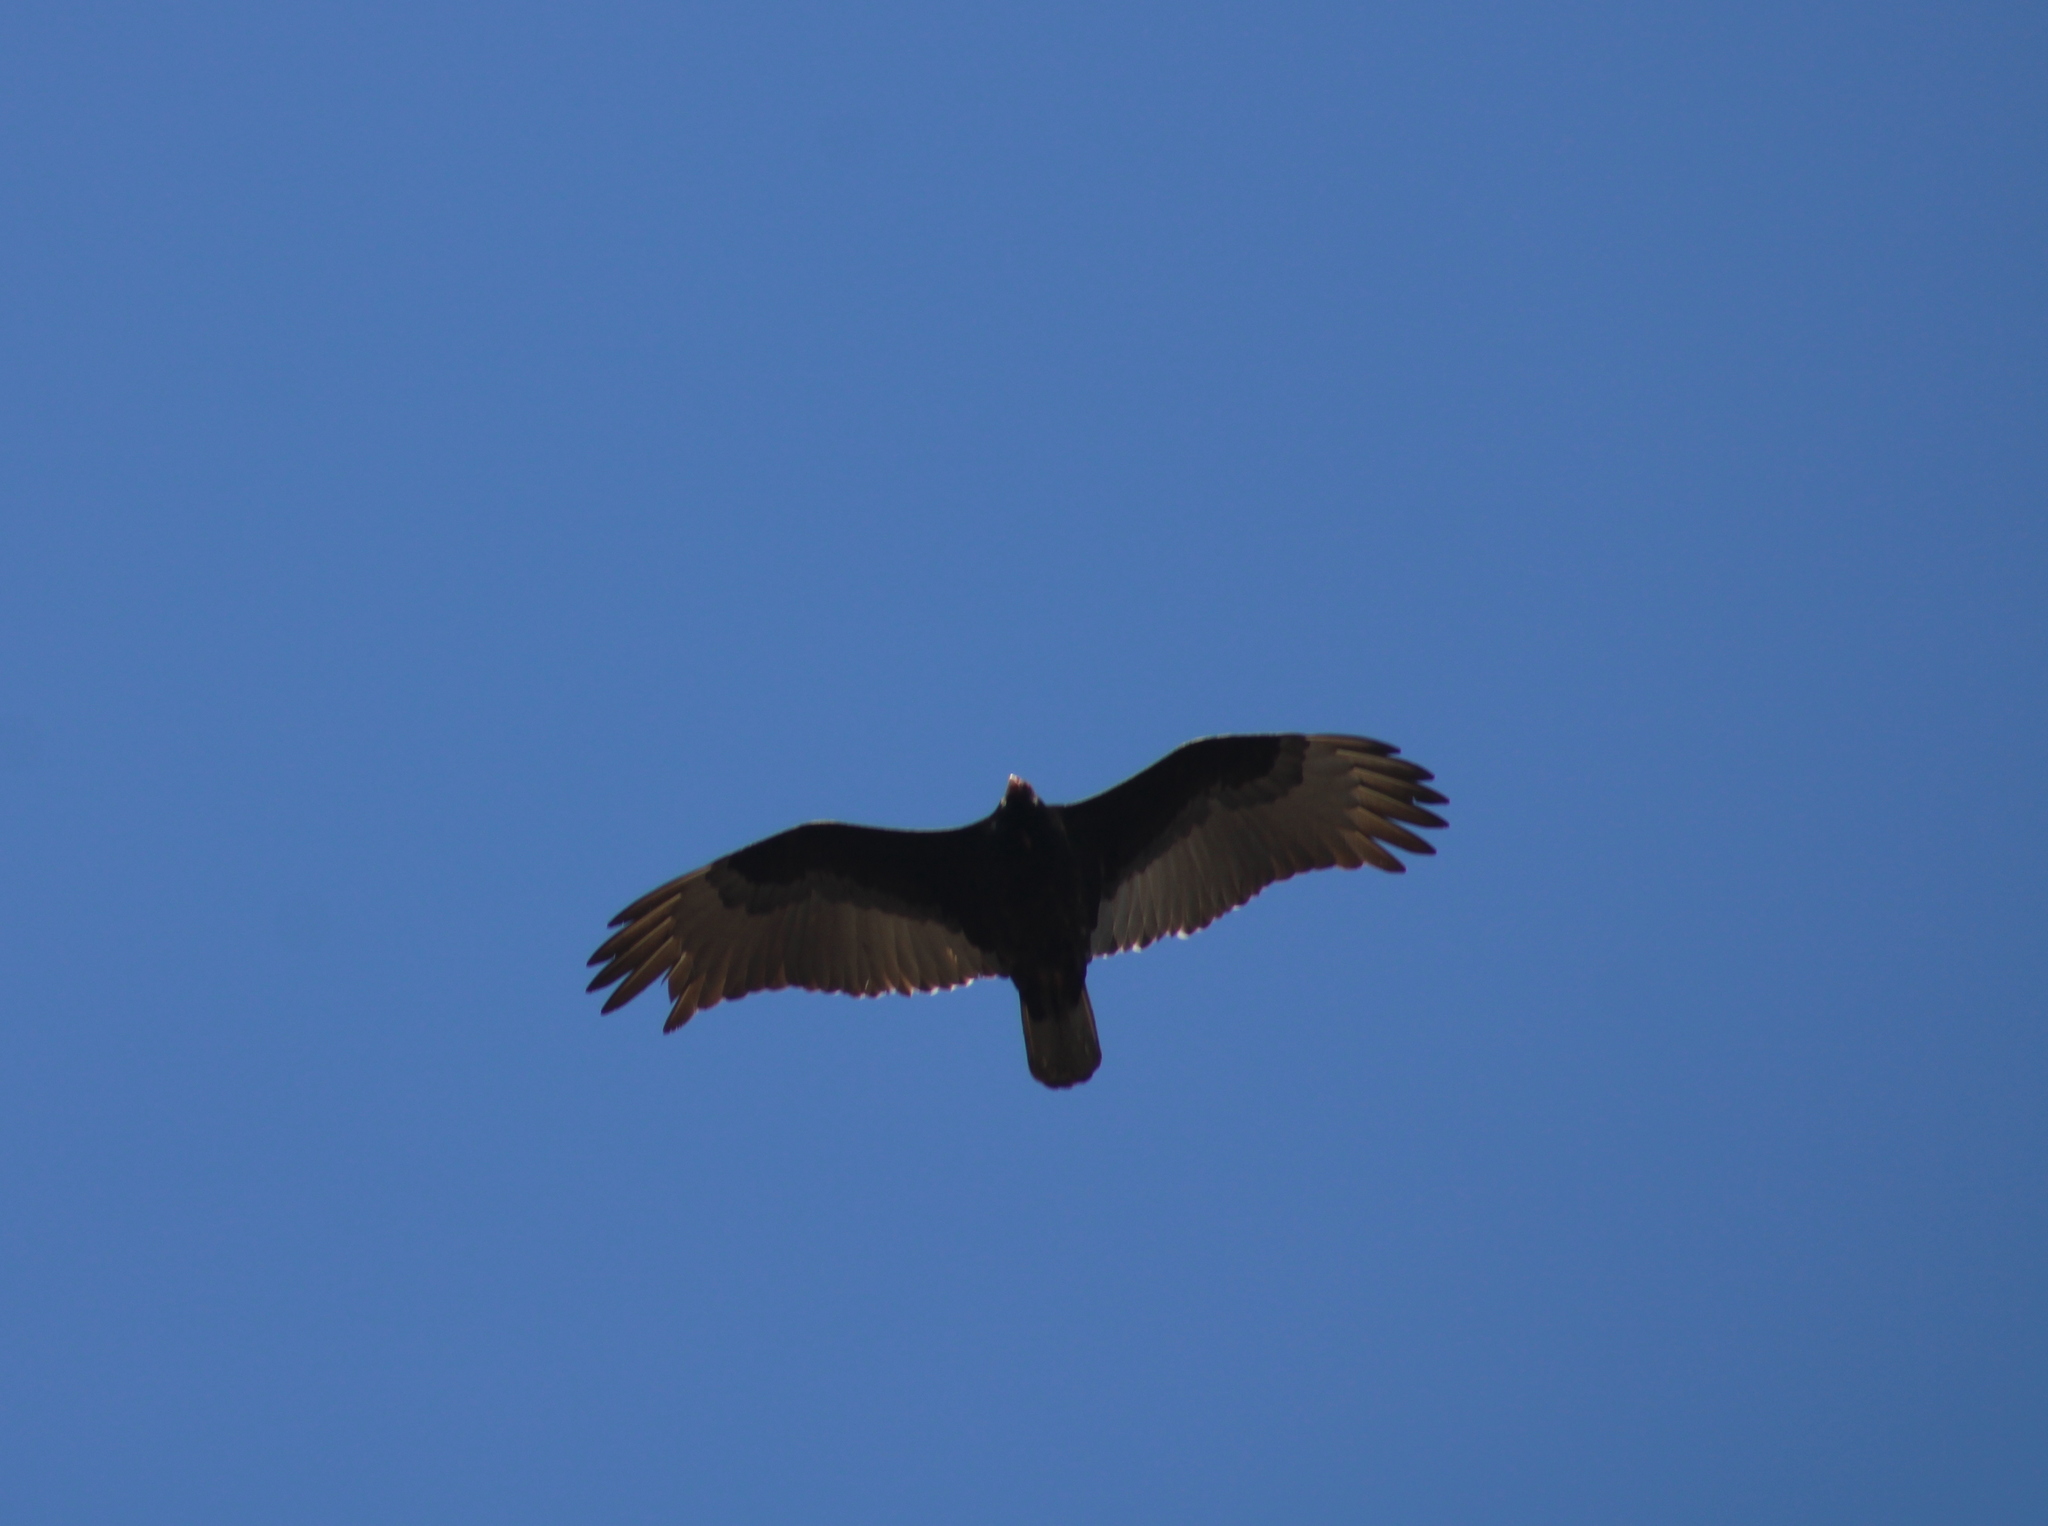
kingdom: Animalia
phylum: Chordata
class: Aves
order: Accipitriformes
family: Cathartidae
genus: Cathartes
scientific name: Cathartes aura
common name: Turkey vulture
